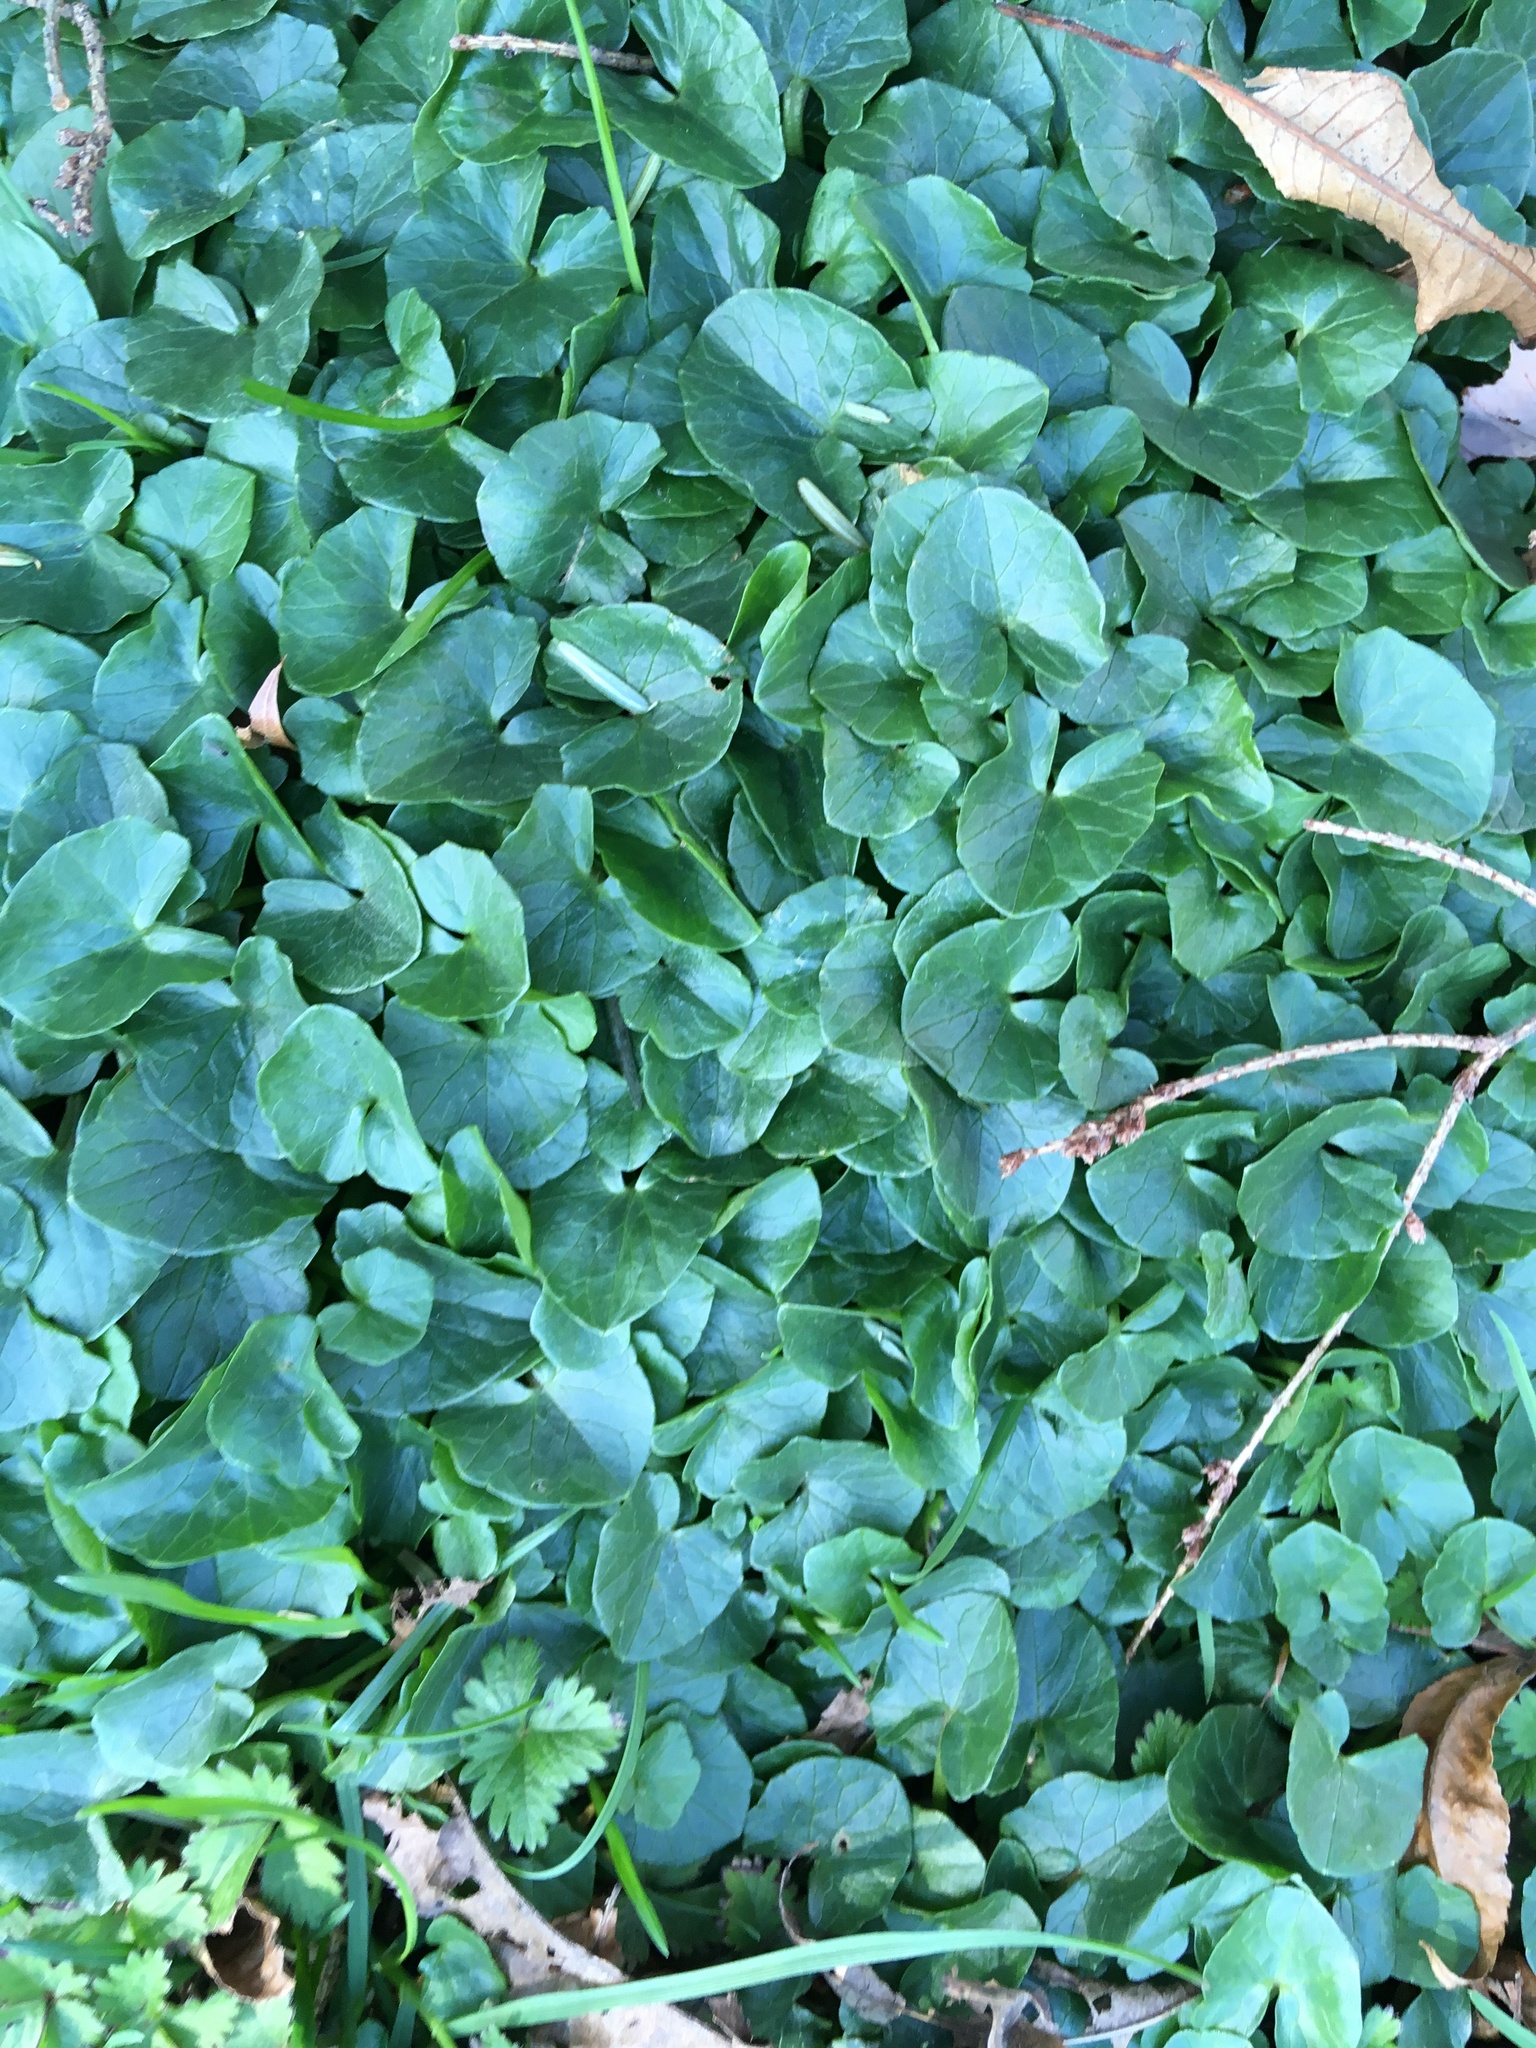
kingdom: Plantae
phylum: Tracheophyta
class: Magnoliopsida
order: Ranunculales
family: Ranunculaceae
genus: Ficaria
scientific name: Ficaria verna
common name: Lesser celandine
